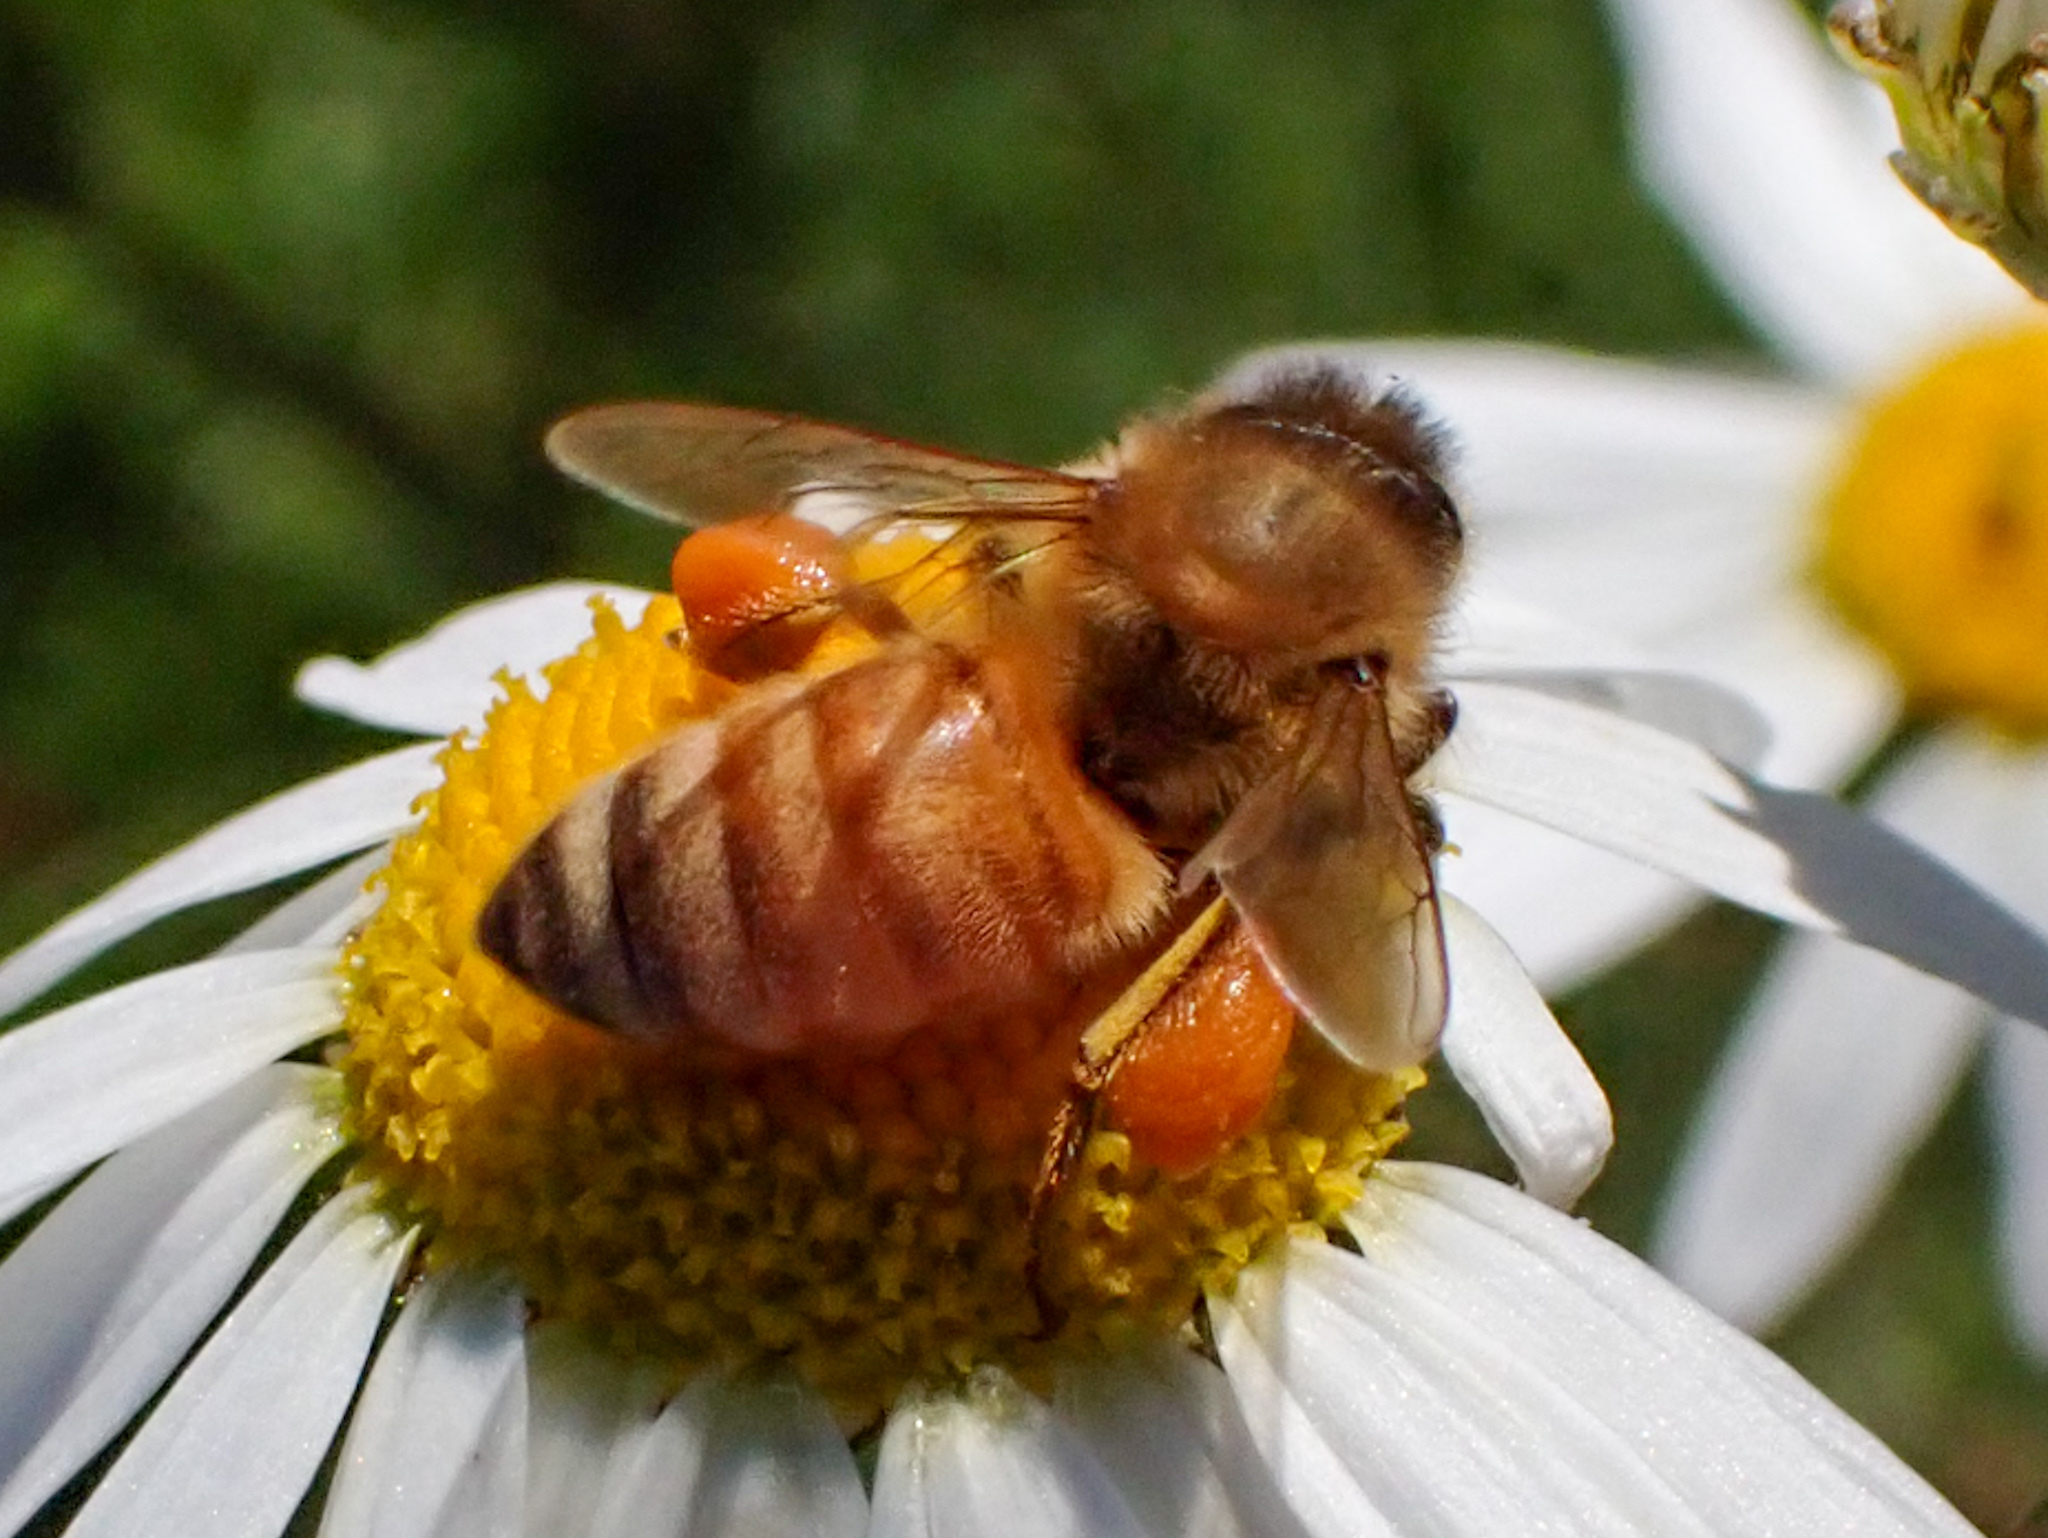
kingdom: Animalia
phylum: Arthropoda
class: Insecta
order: Hymenoptera
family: Apidae
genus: Apis
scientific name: Apis mellifera
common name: Honey bee
